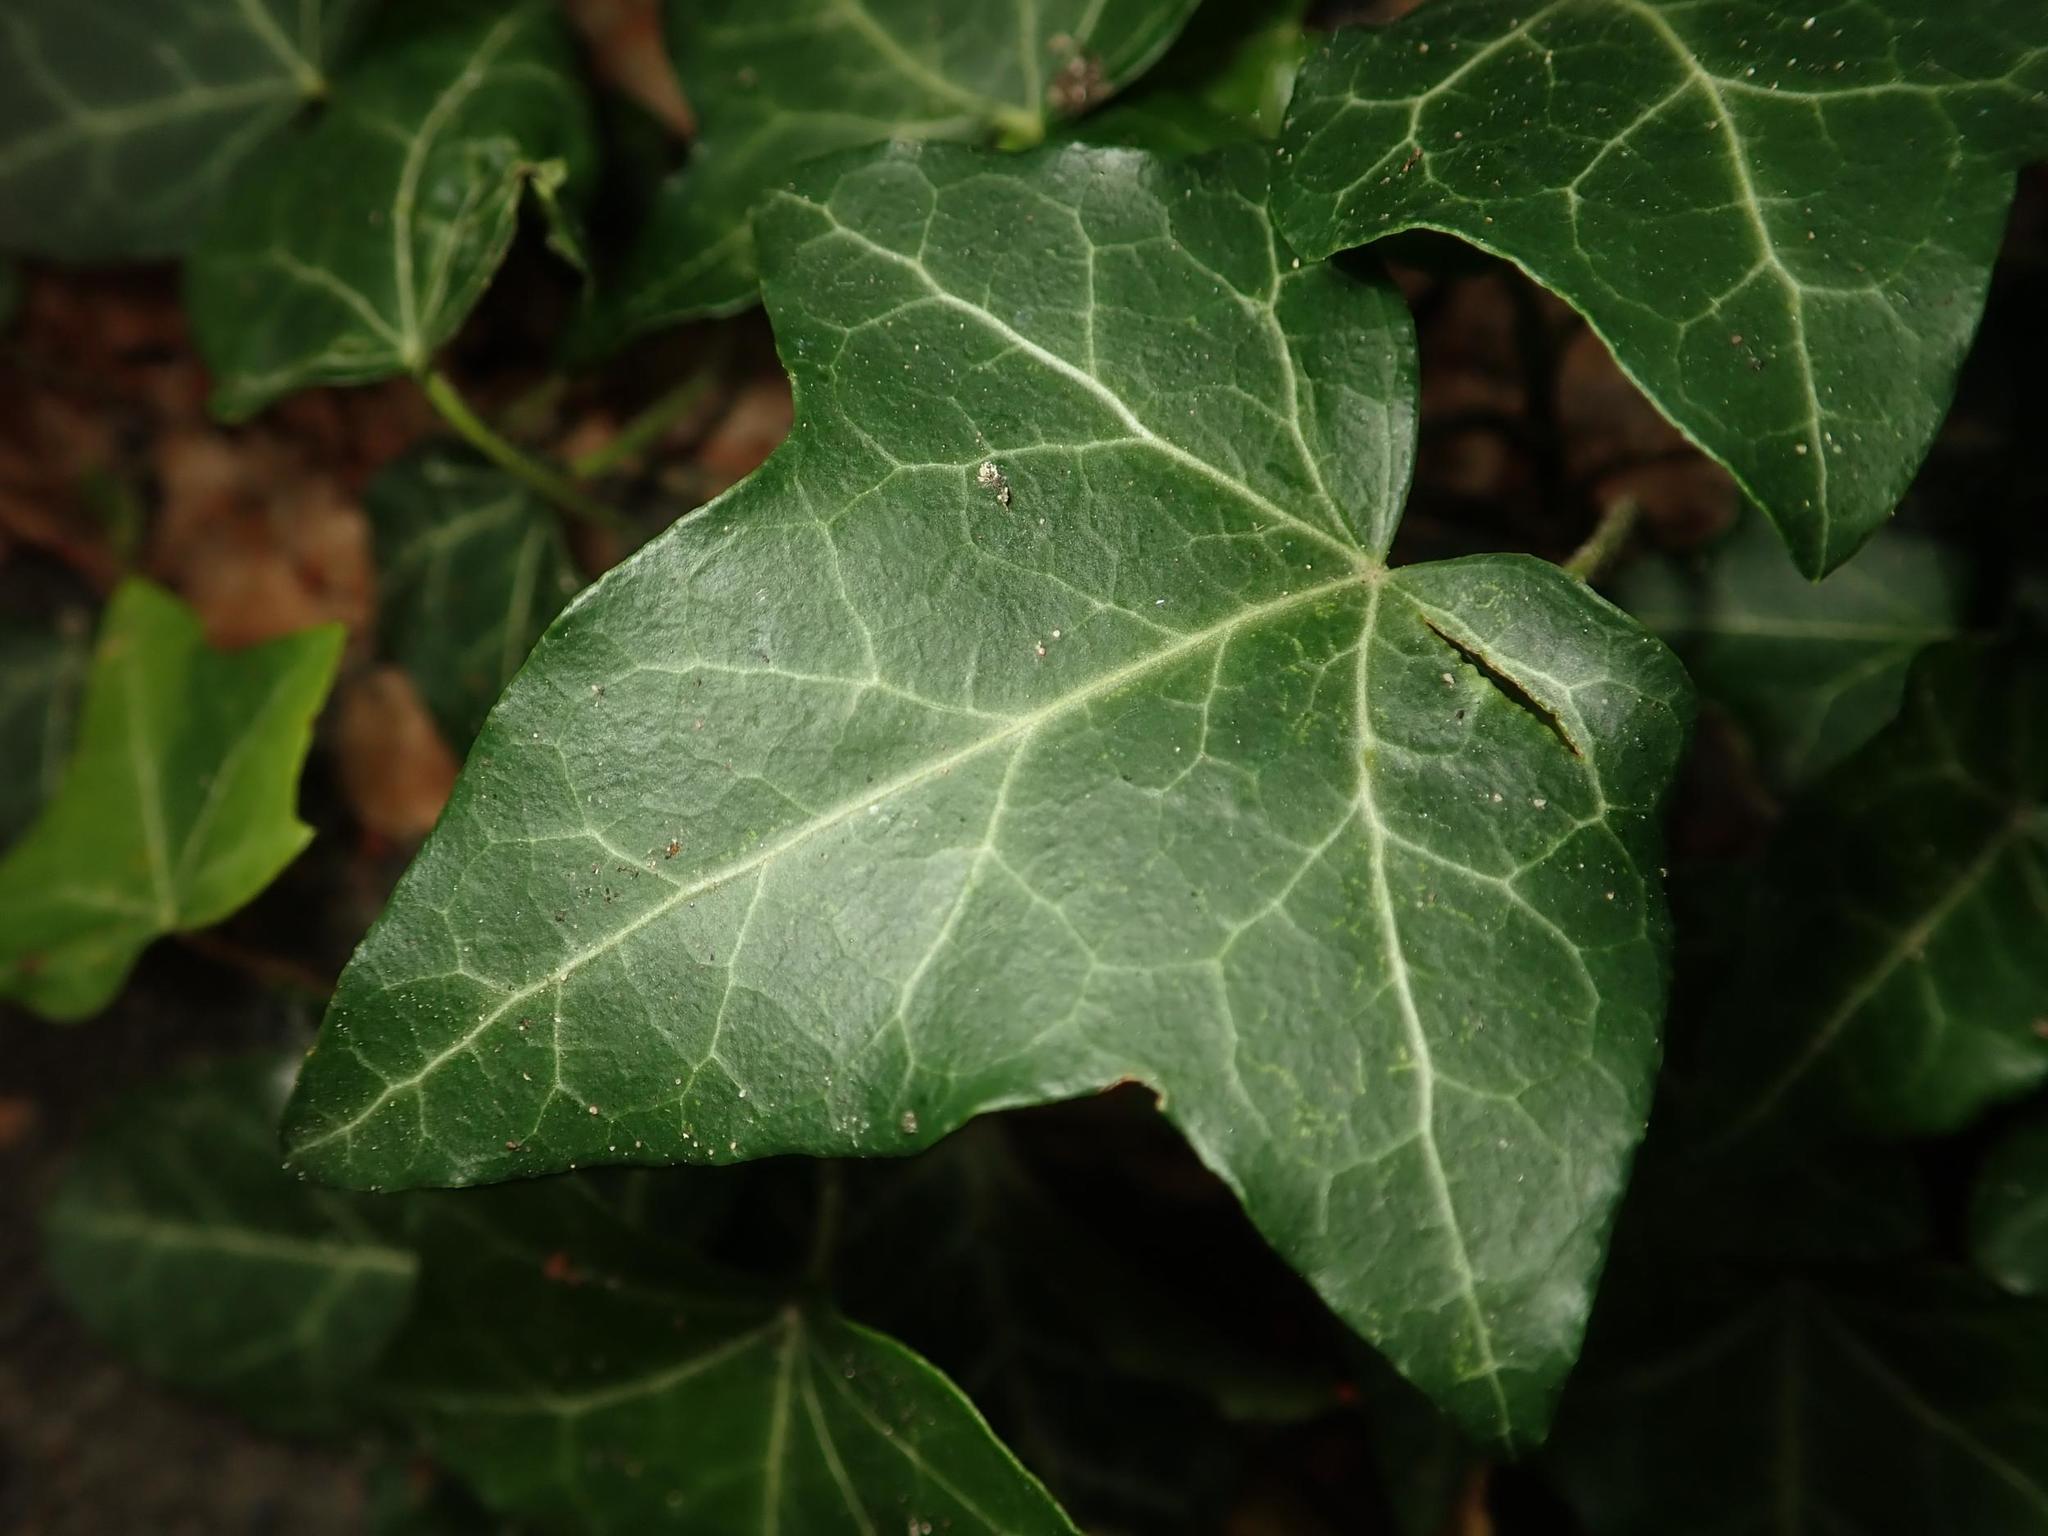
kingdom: Plantae
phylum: Tracheophyta
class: Magnoliopsida
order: Apiales
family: Araliaceae
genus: Hedera
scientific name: Hedera helix
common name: Ivy
